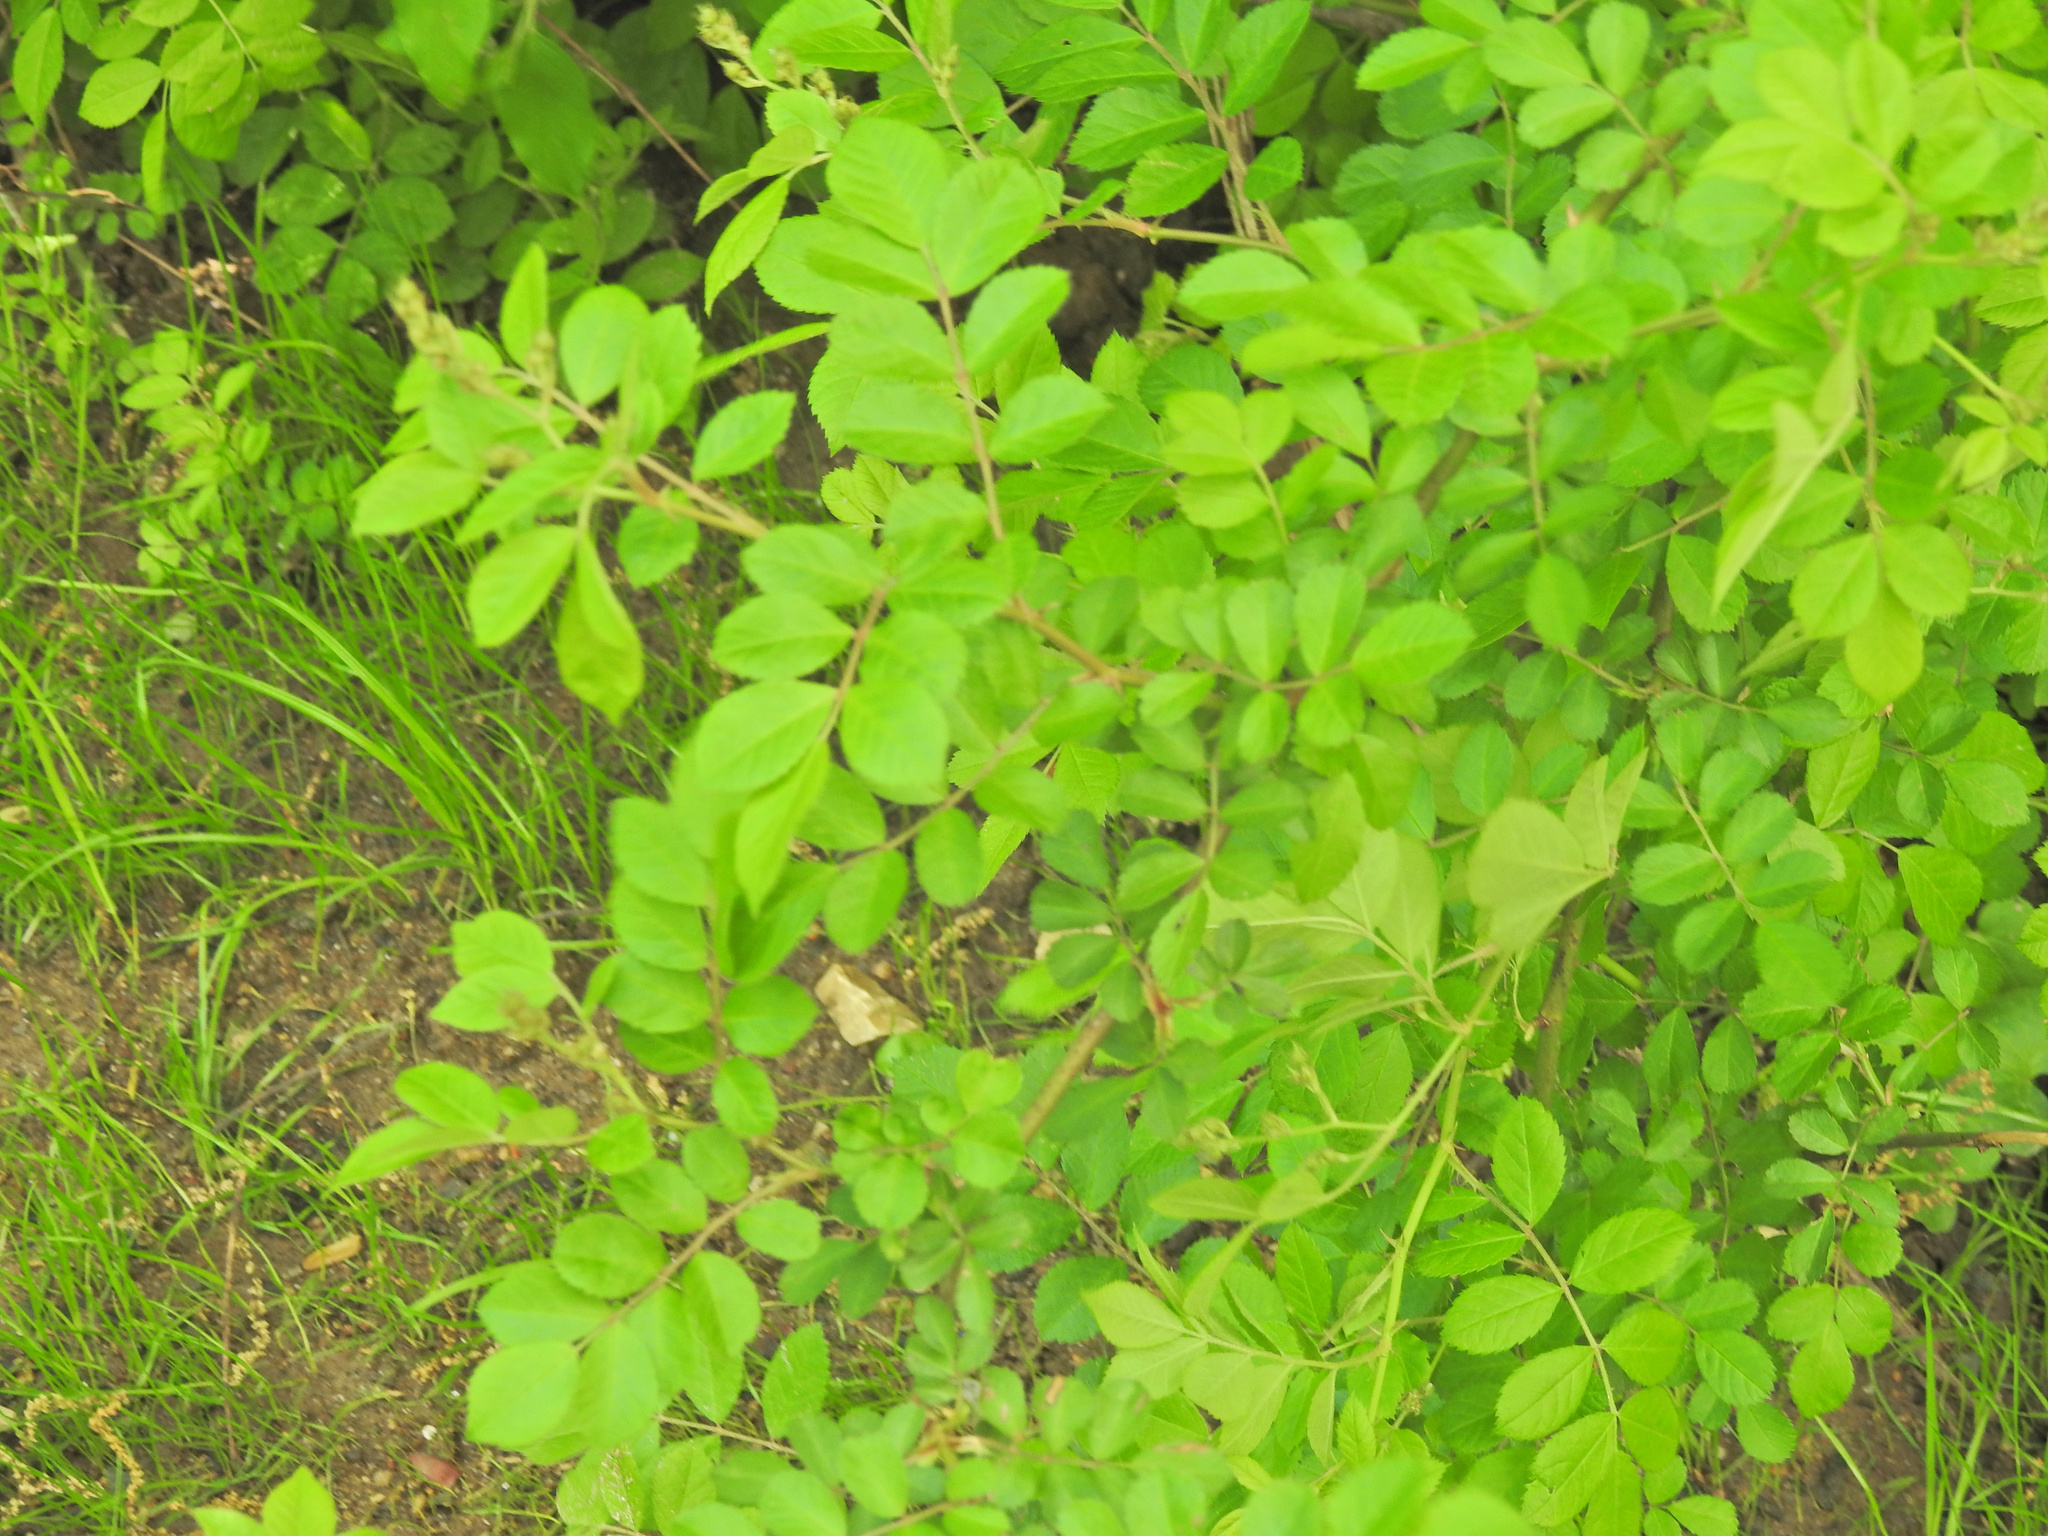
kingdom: Plantae
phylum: Tracheophyta
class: Magnoliopsida
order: Rosales
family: Rosaceae
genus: Rosa
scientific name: Rosa multiflora
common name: Multiflora rose
